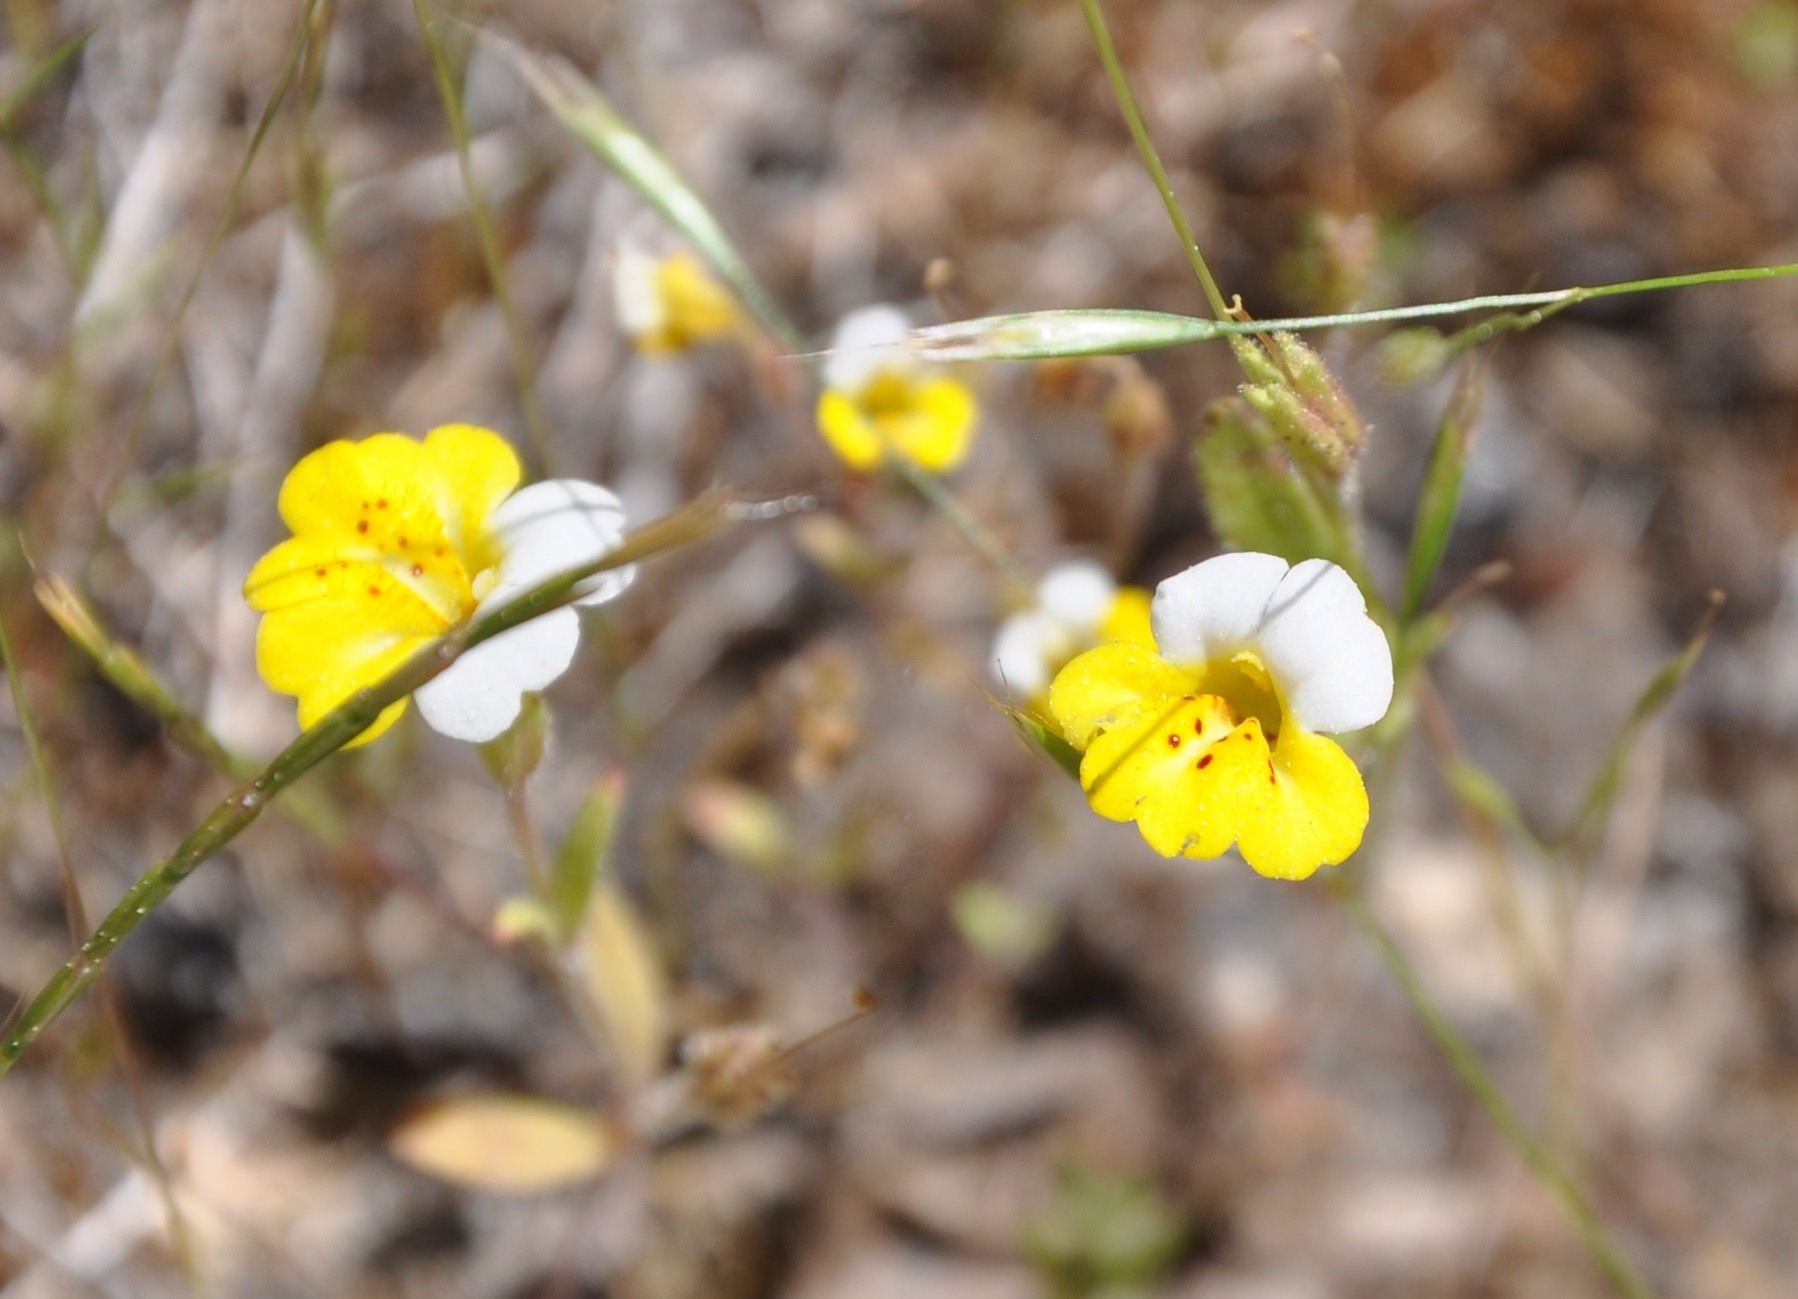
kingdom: Plantae
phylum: Tracheophyta
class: Magnoliopsida
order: Lamiales
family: Phrymaceae
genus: Erythranthe
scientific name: Erythranthe bicolor
